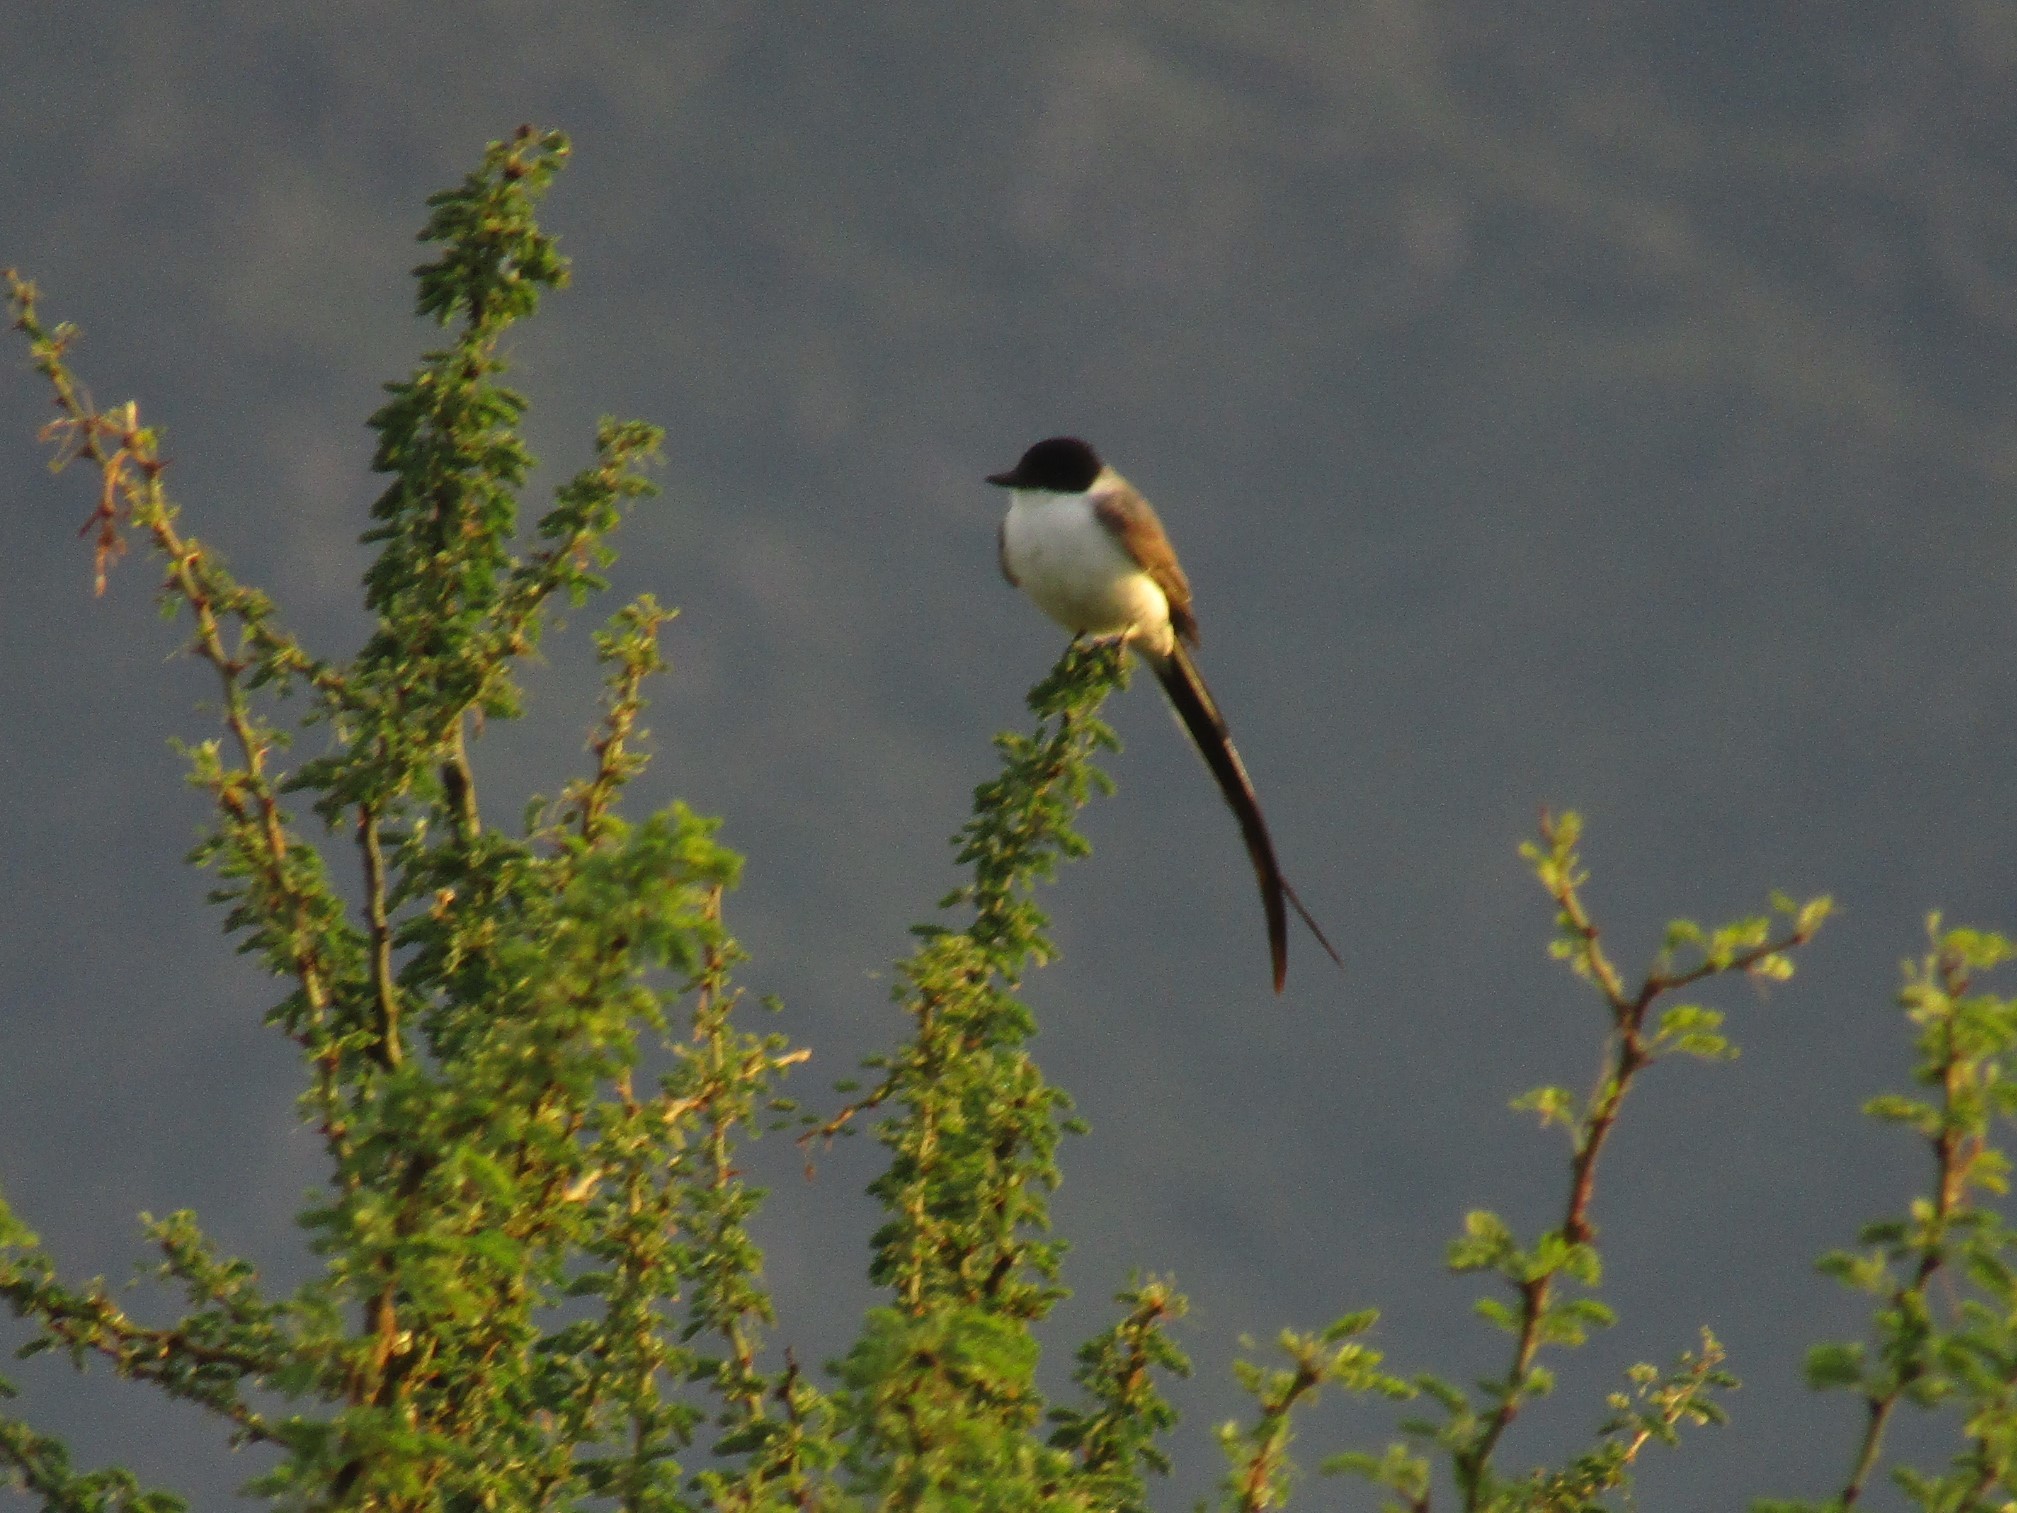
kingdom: Animalia
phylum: Chordata
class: Aves
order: Passeriformes
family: Tyrannidae
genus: Tyrannus
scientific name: Tyrannus savana
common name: Fork-tailed flycatcher
